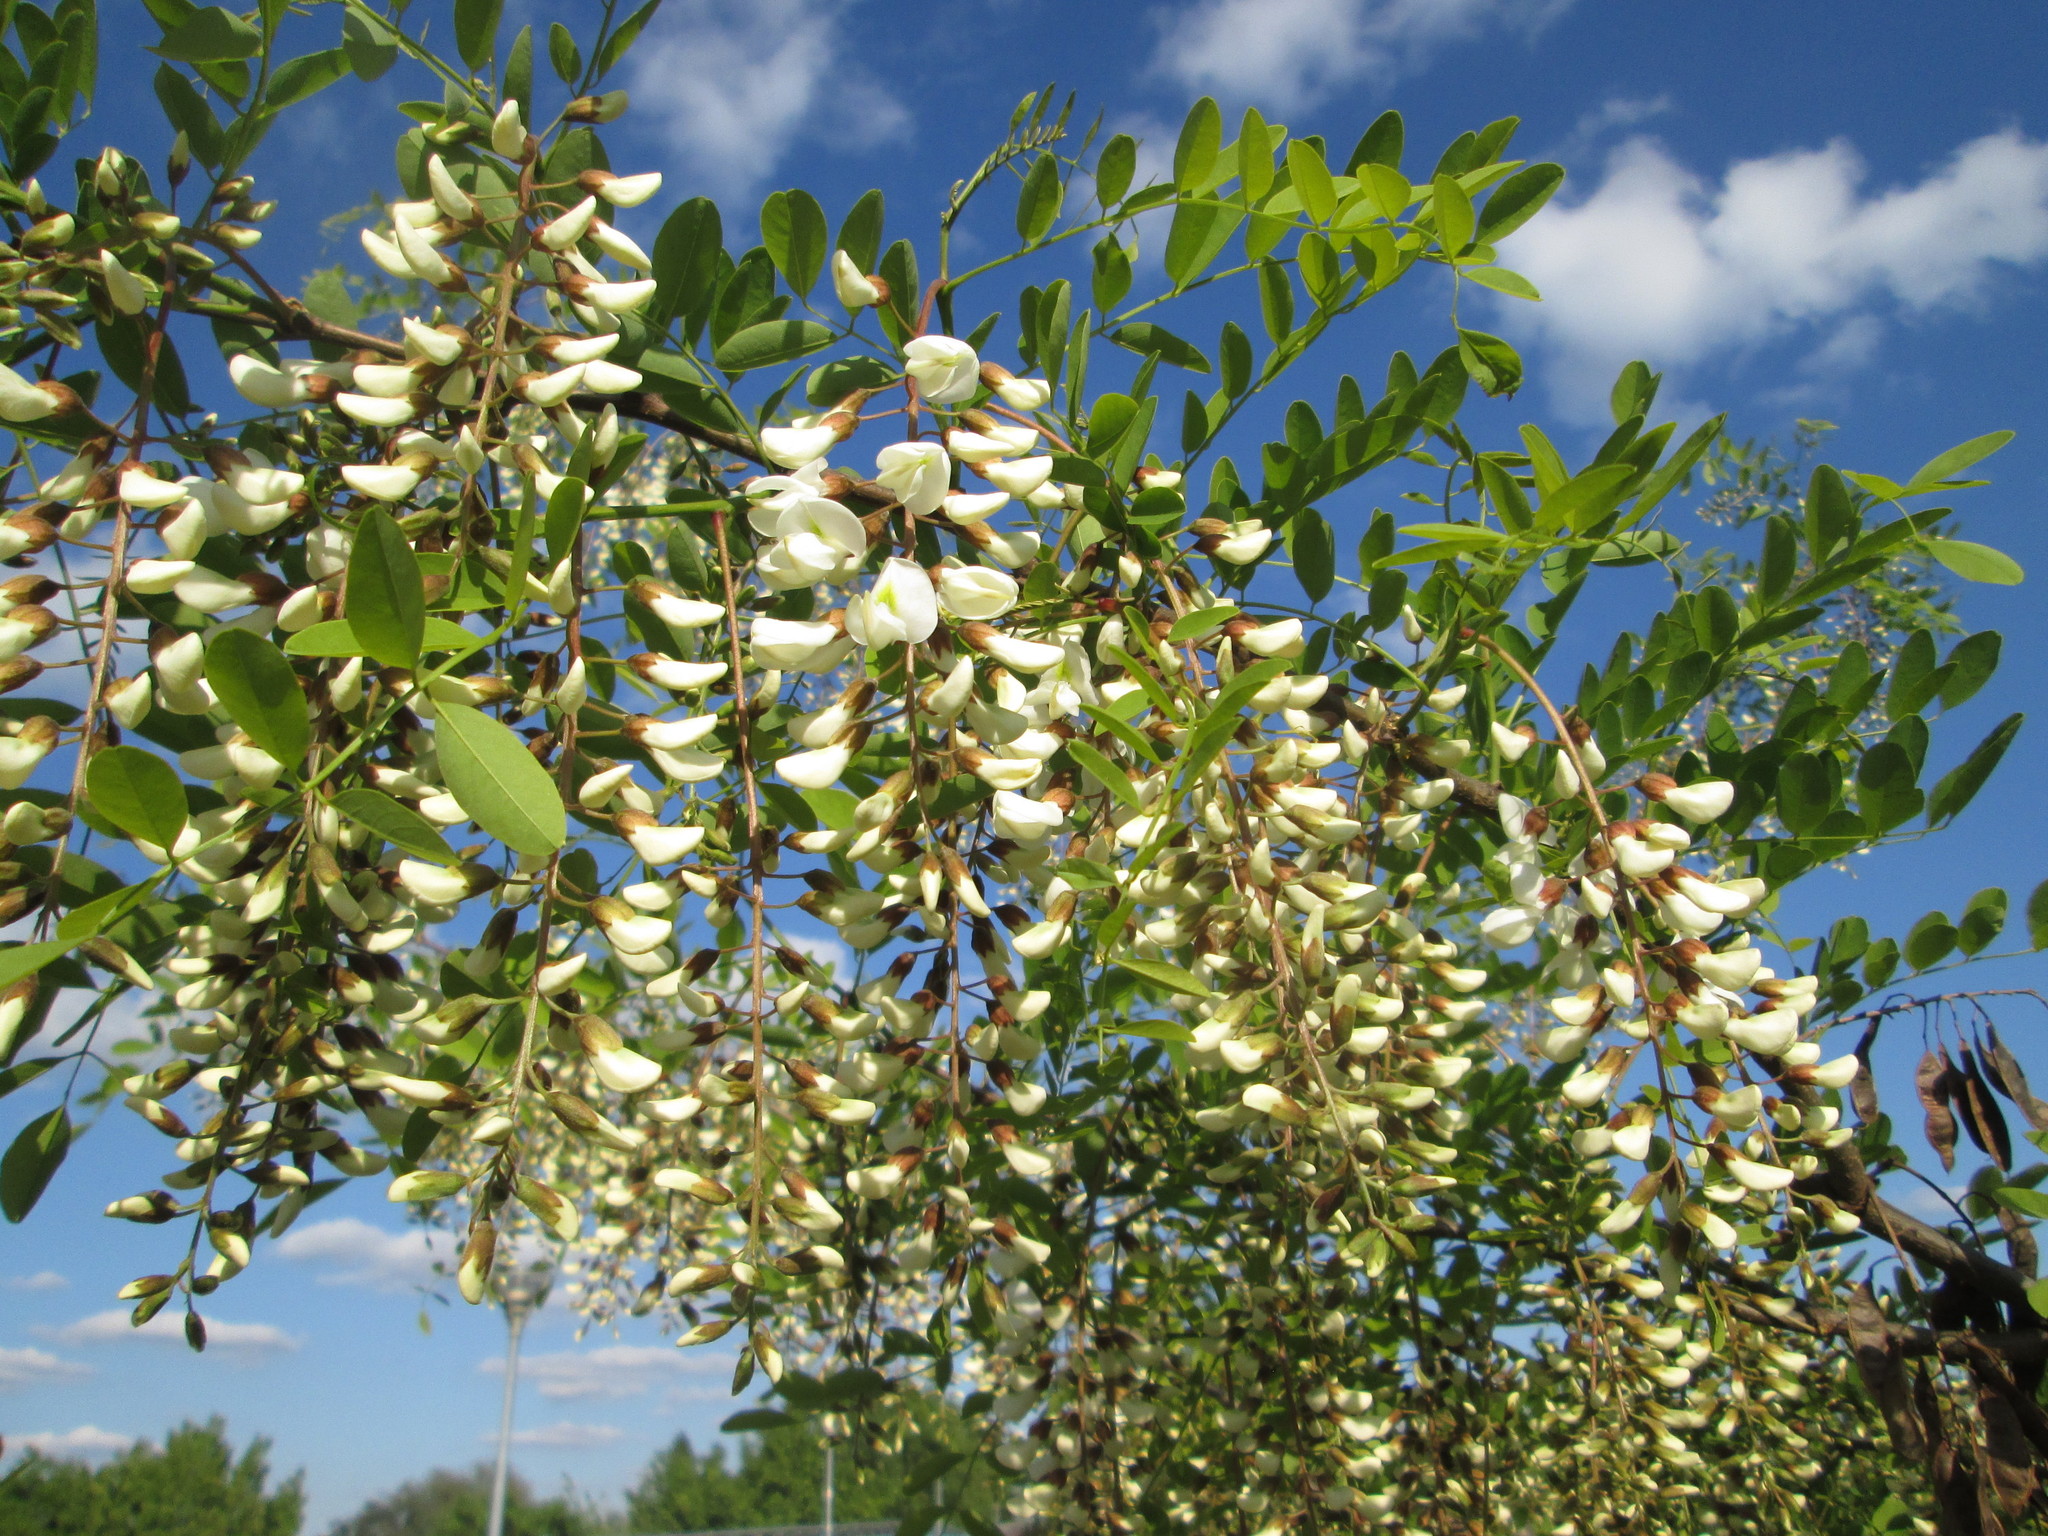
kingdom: Plantae
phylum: Tracheophyta
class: Magnoliopsida
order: Fabales
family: Fabaceae
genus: Robinia
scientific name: Robinia pseudoacacia
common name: Black locust
